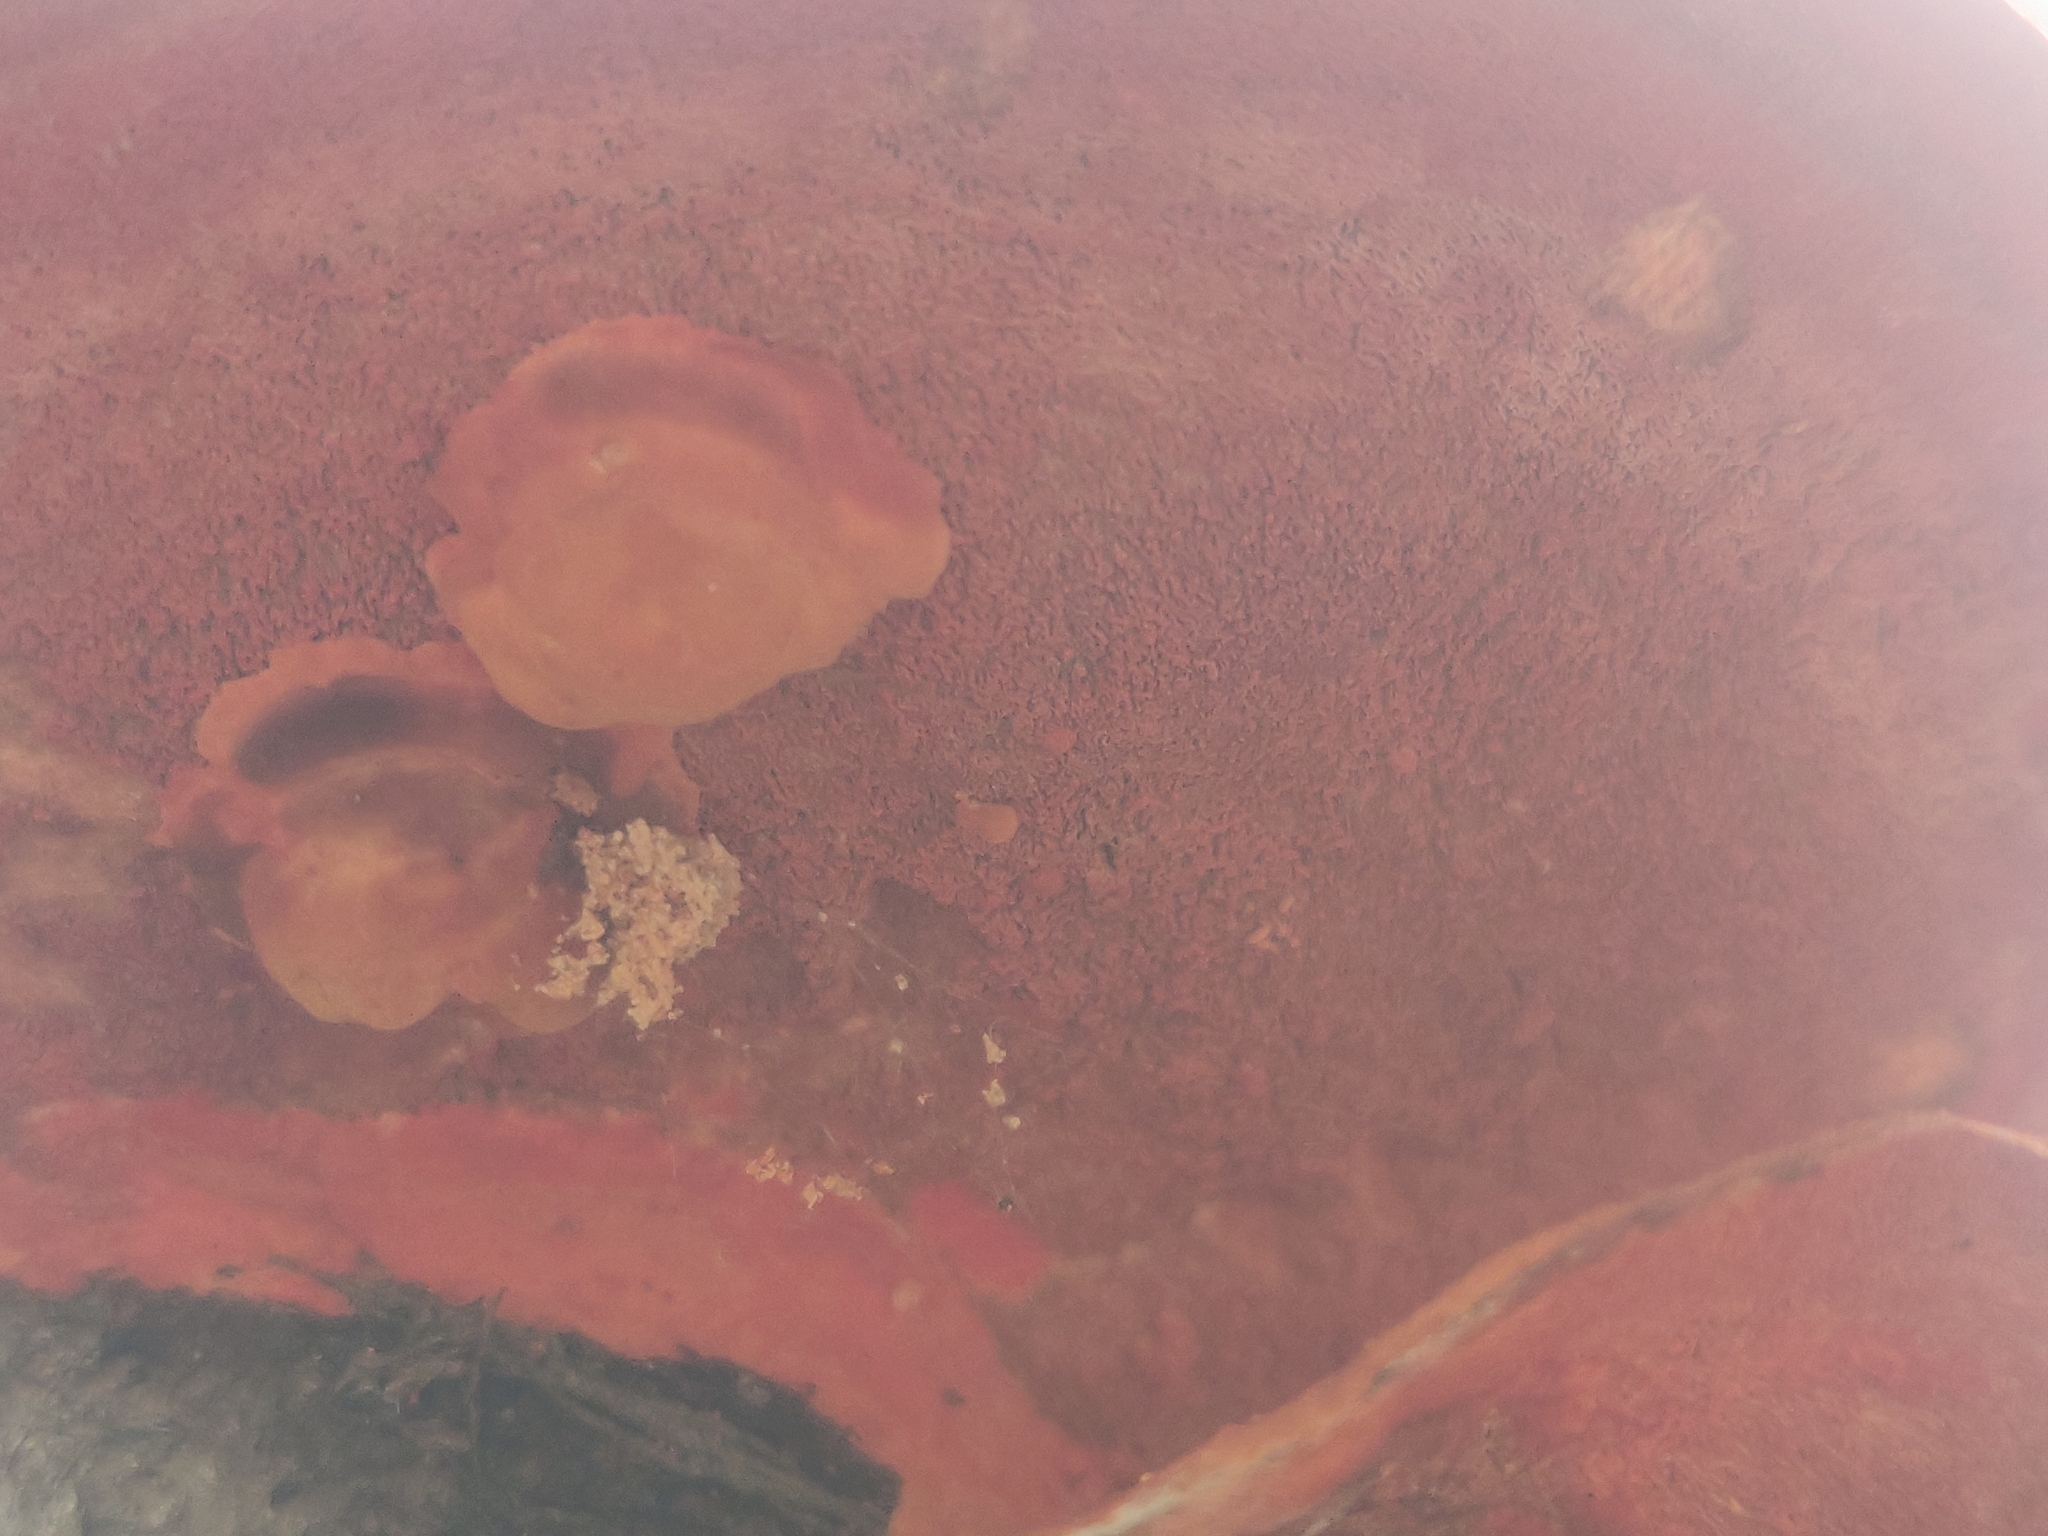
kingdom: Fungi
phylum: Basidiomycota
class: Agaricomycetes
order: Polyporales
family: Polyporaceae
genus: Trametes
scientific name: Trametes coccinea
